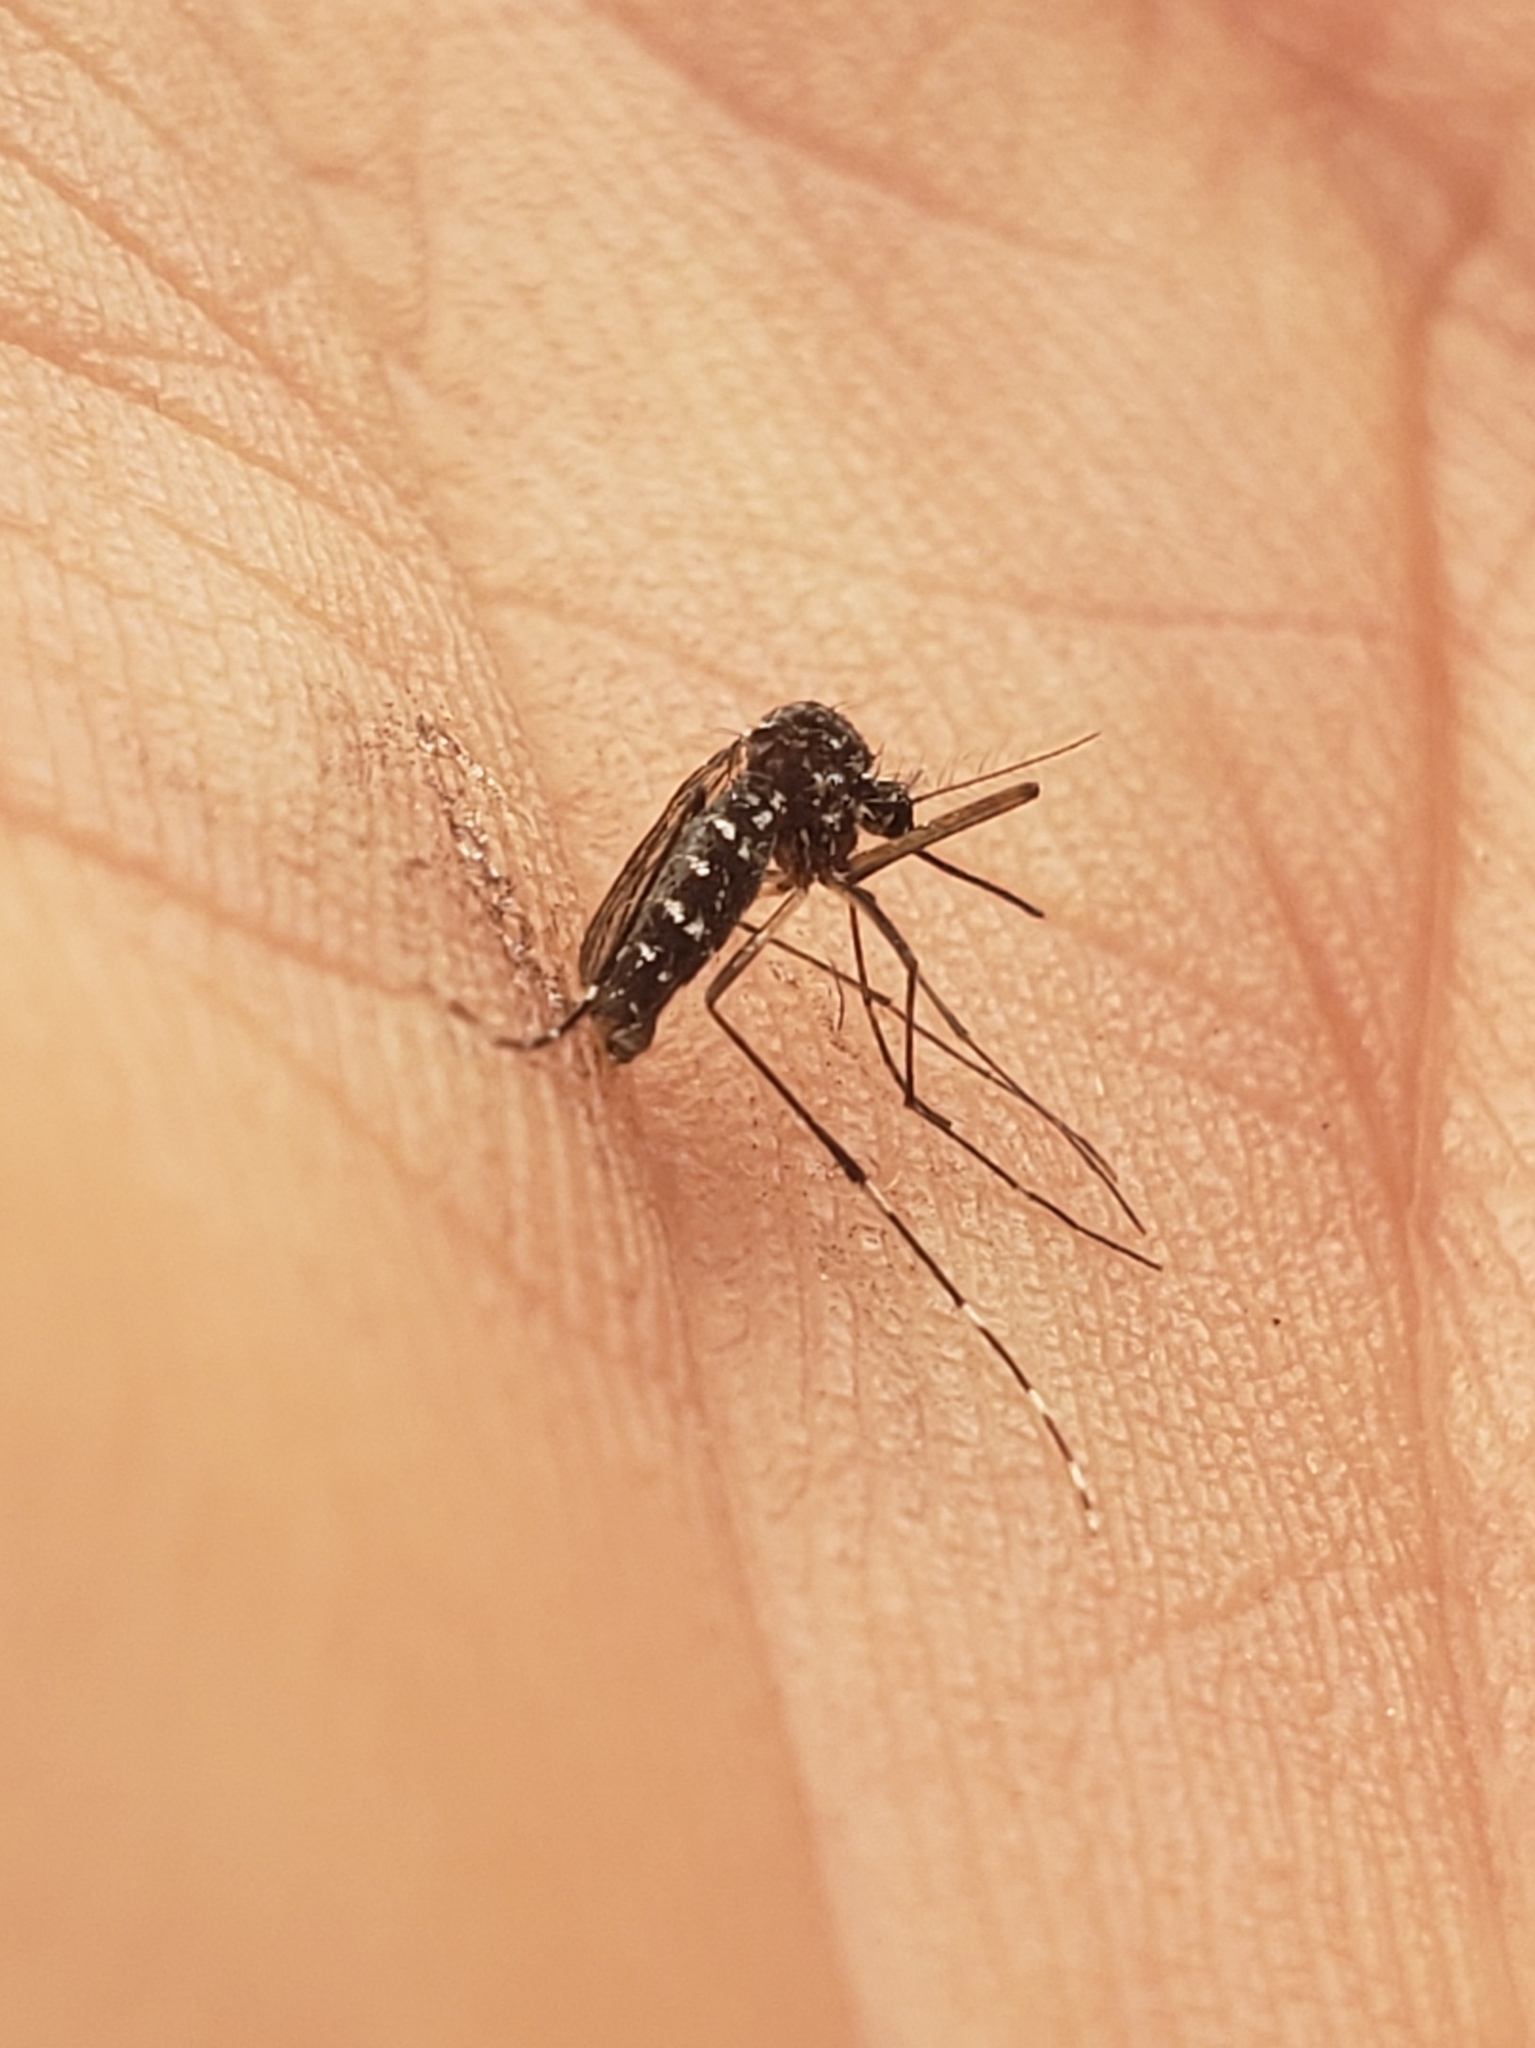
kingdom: Animalia
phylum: Arthropoda
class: Insecta
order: Diptera
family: Culicidae
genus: Aedes
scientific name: Aedes albopictus
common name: Tiger mosquito
